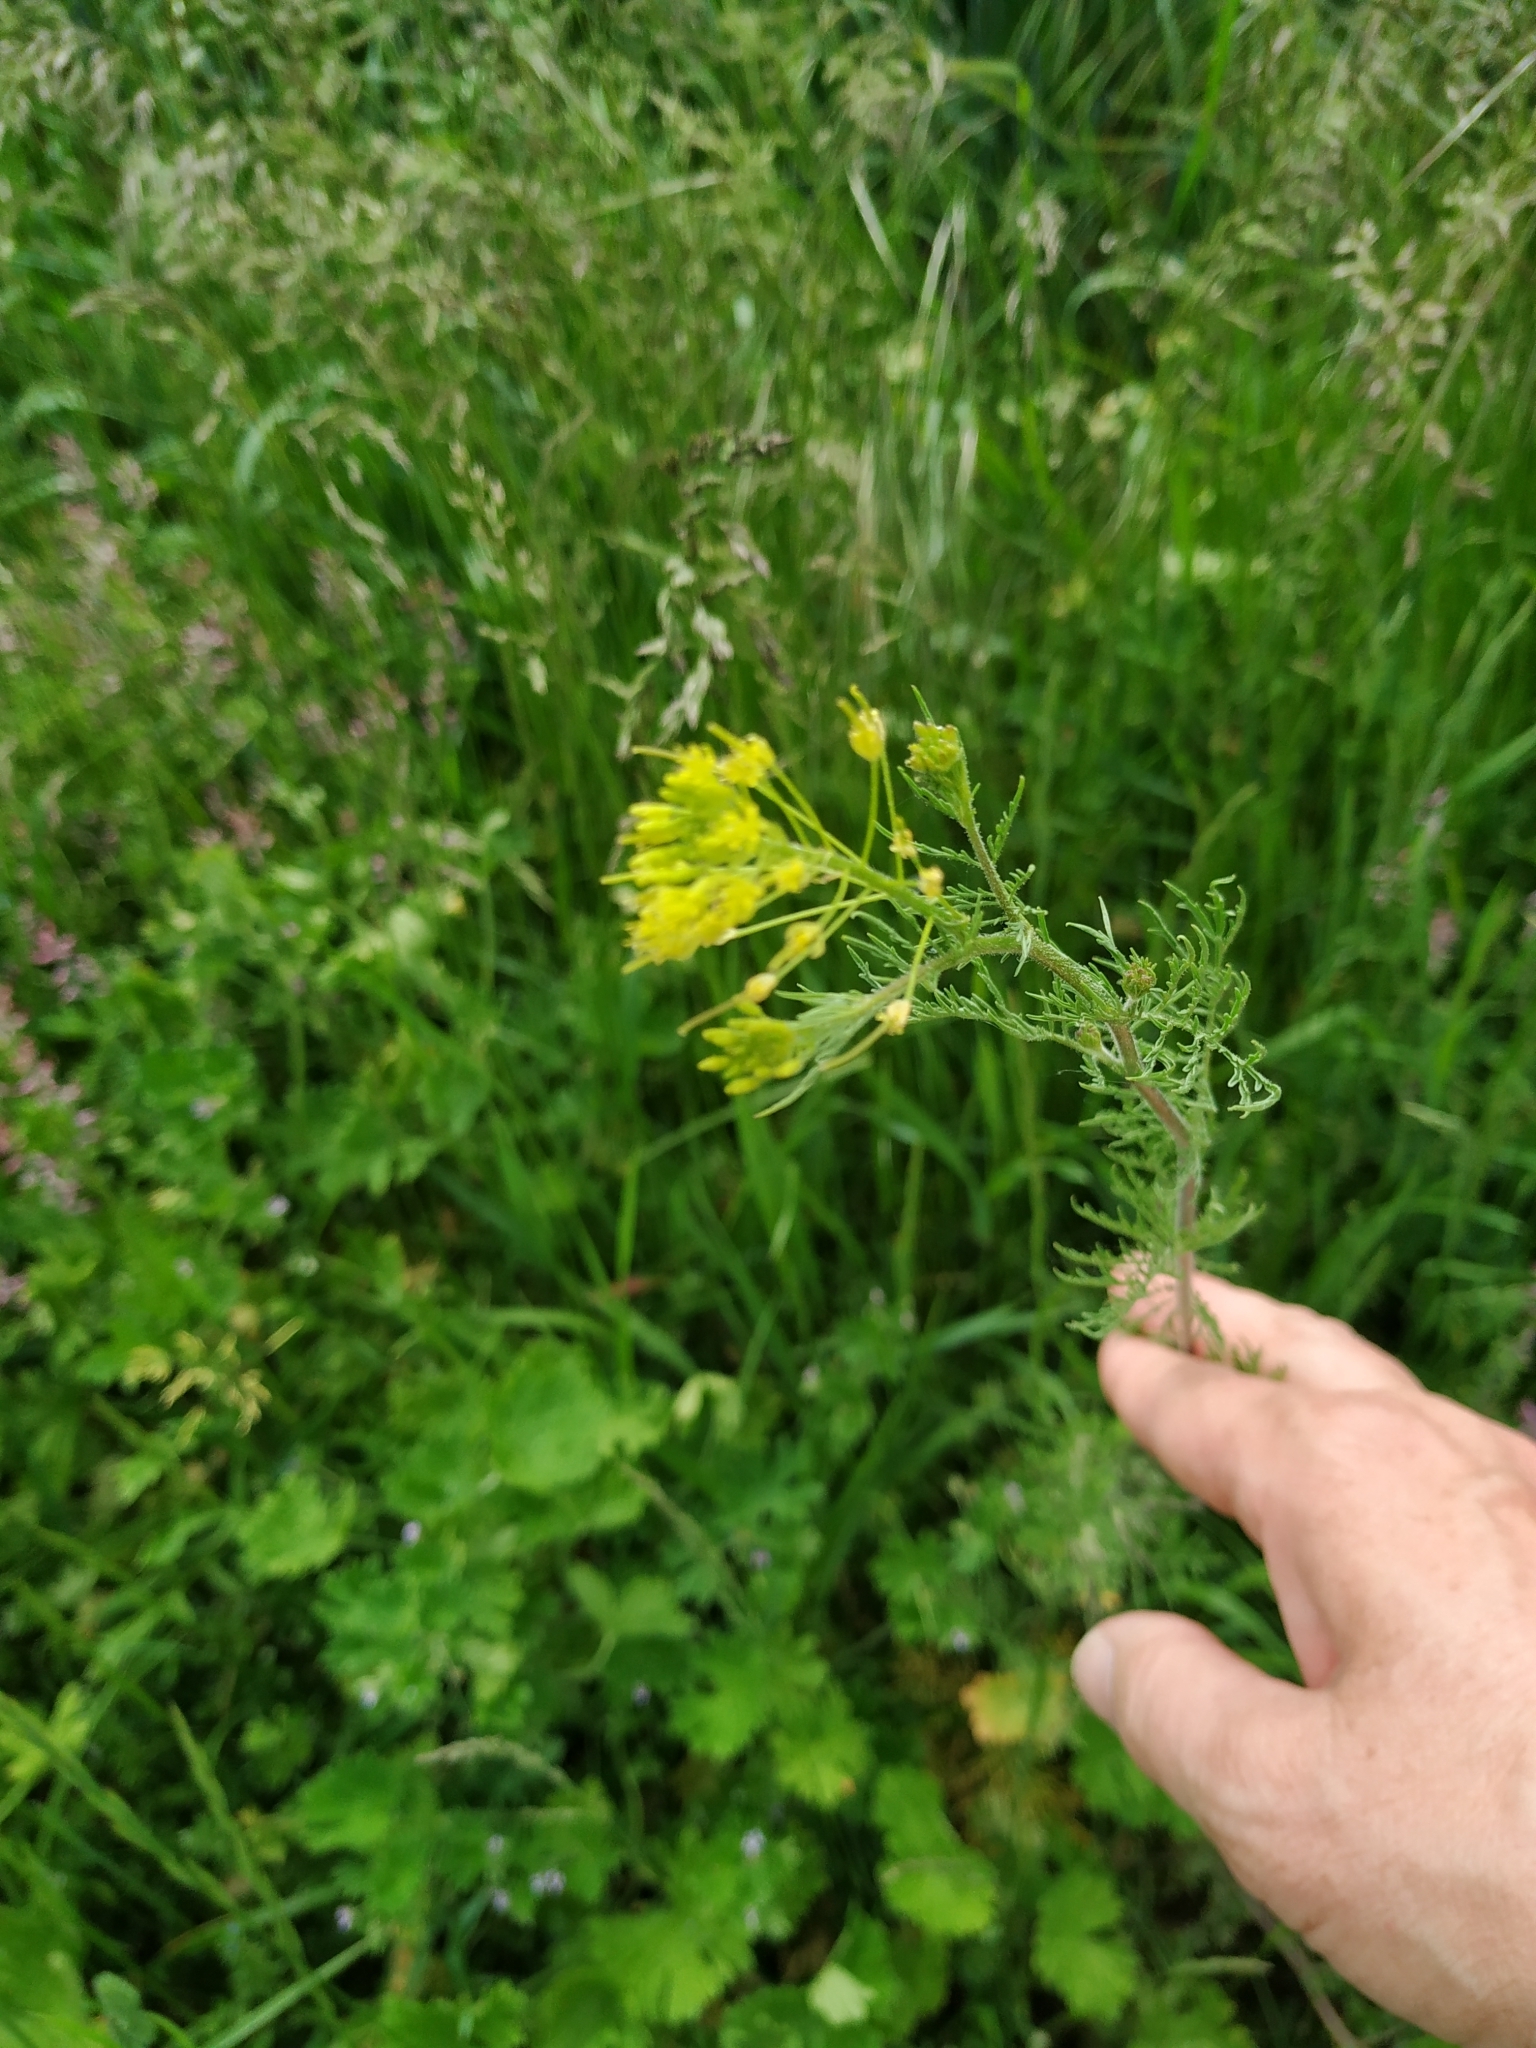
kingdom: Plantae
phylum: Tracheophyta
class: Magnoliopsida
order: Brassicales
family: Brassicaceae
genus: Descurainia
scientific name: Descurainia sophia
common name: Flixweed
